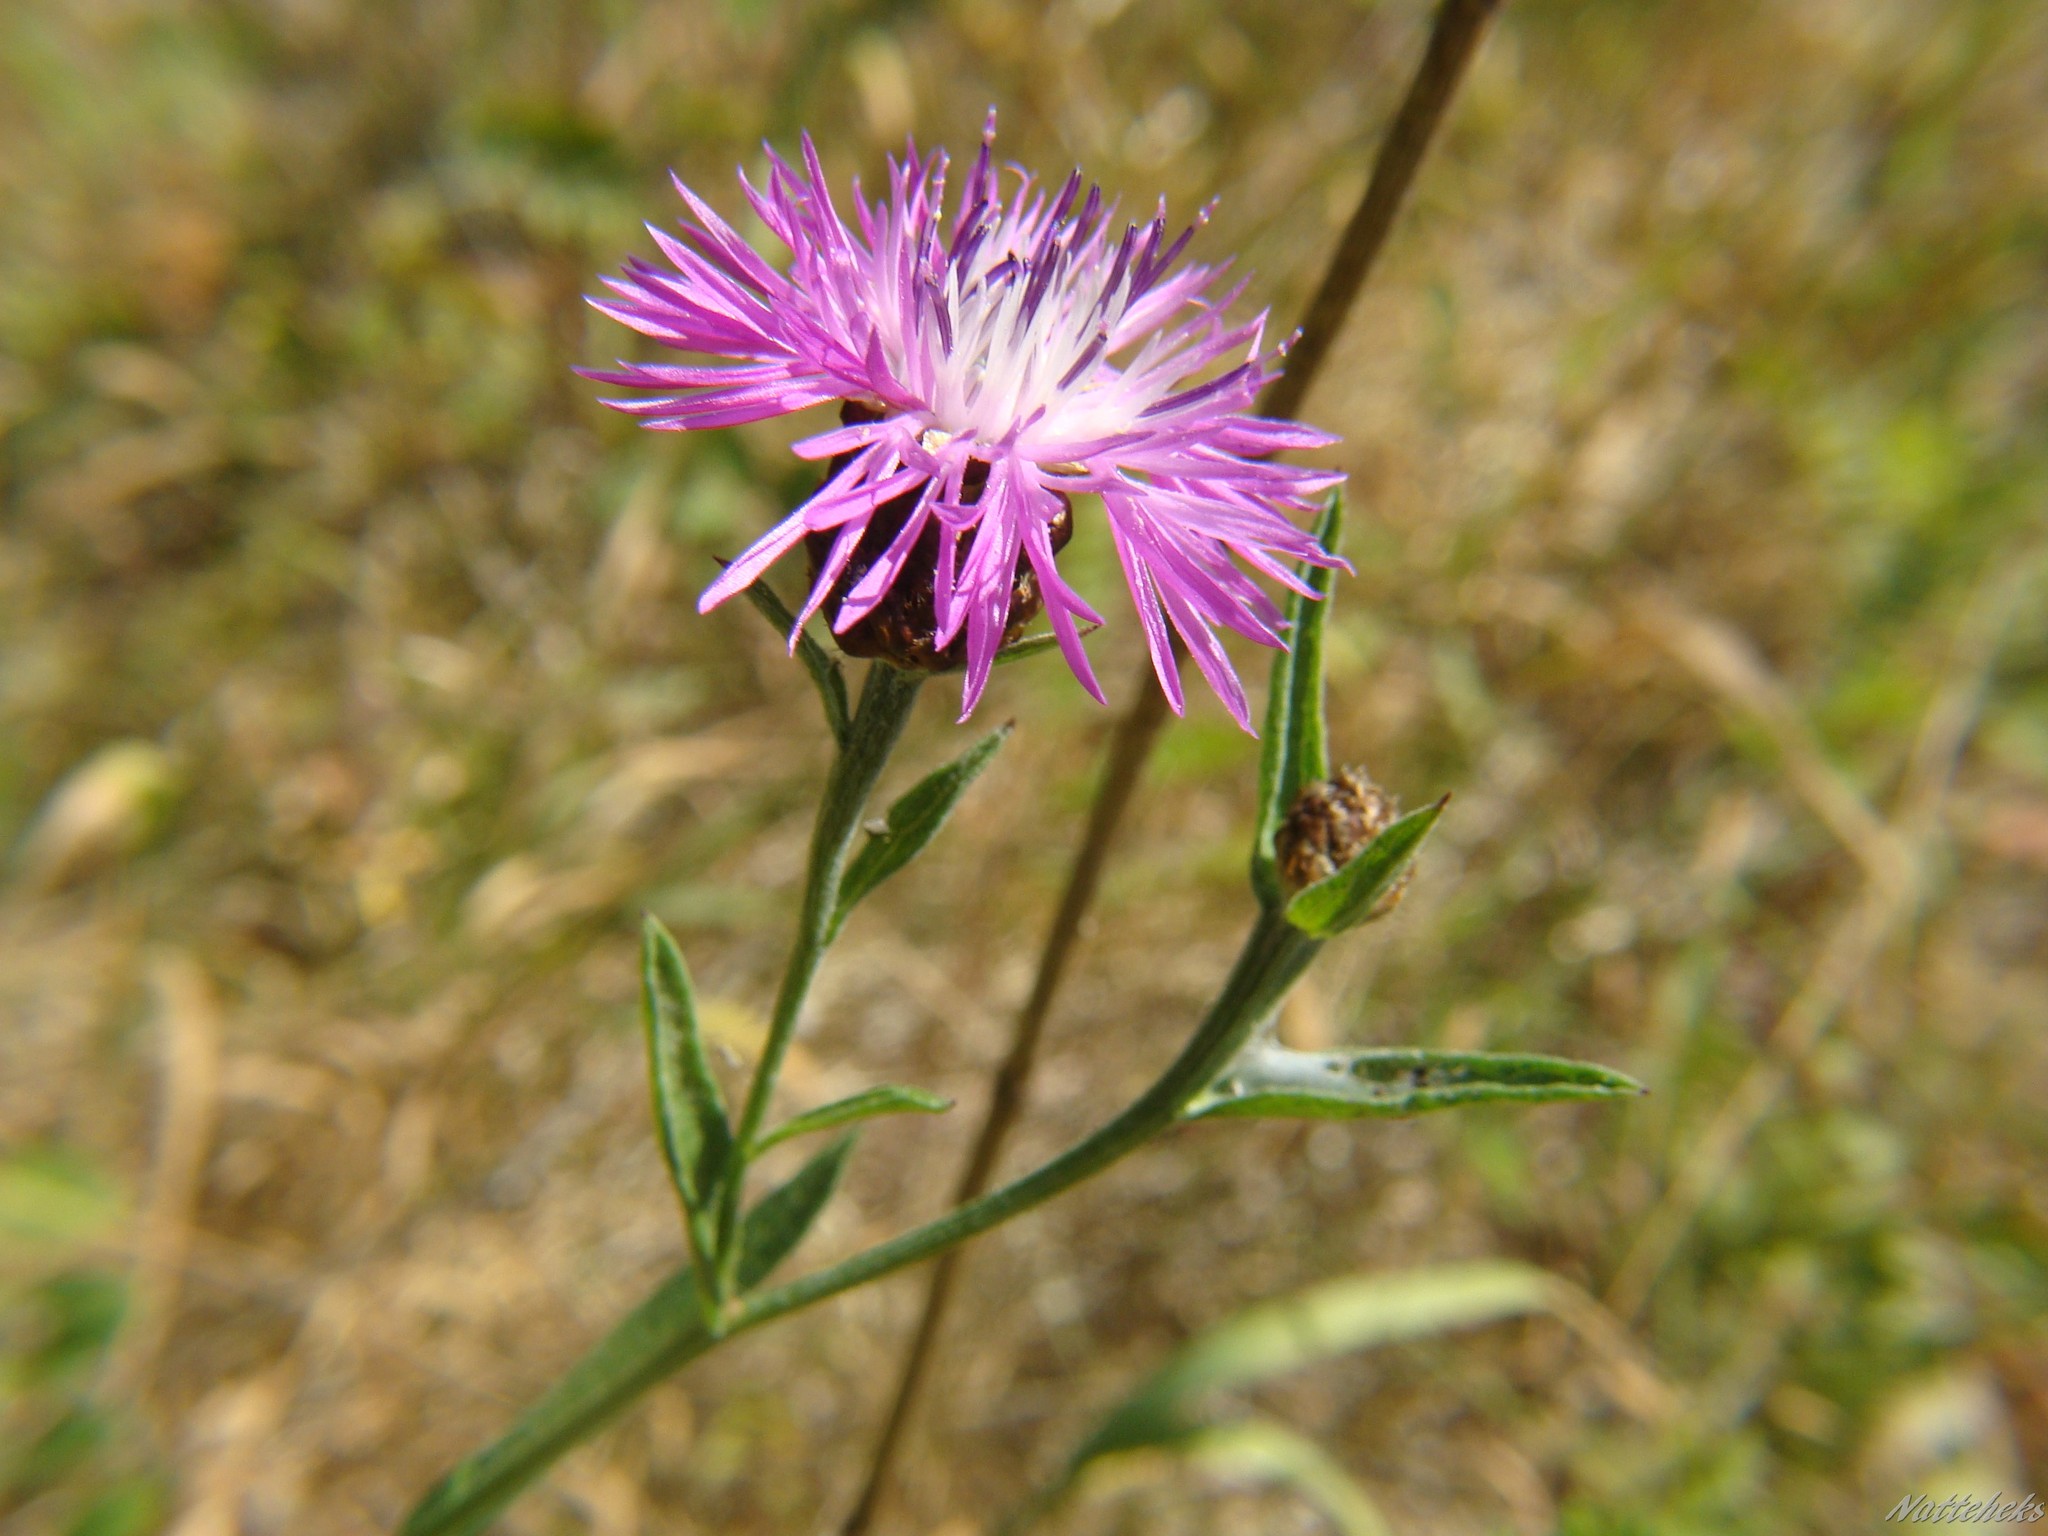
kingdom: Plantae
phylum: Tracheophyta
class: Magnoliopsida
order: Asterales
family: Asteraceae
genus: Centaurea
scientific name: Centaurea jacea
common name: Brown knapweed
